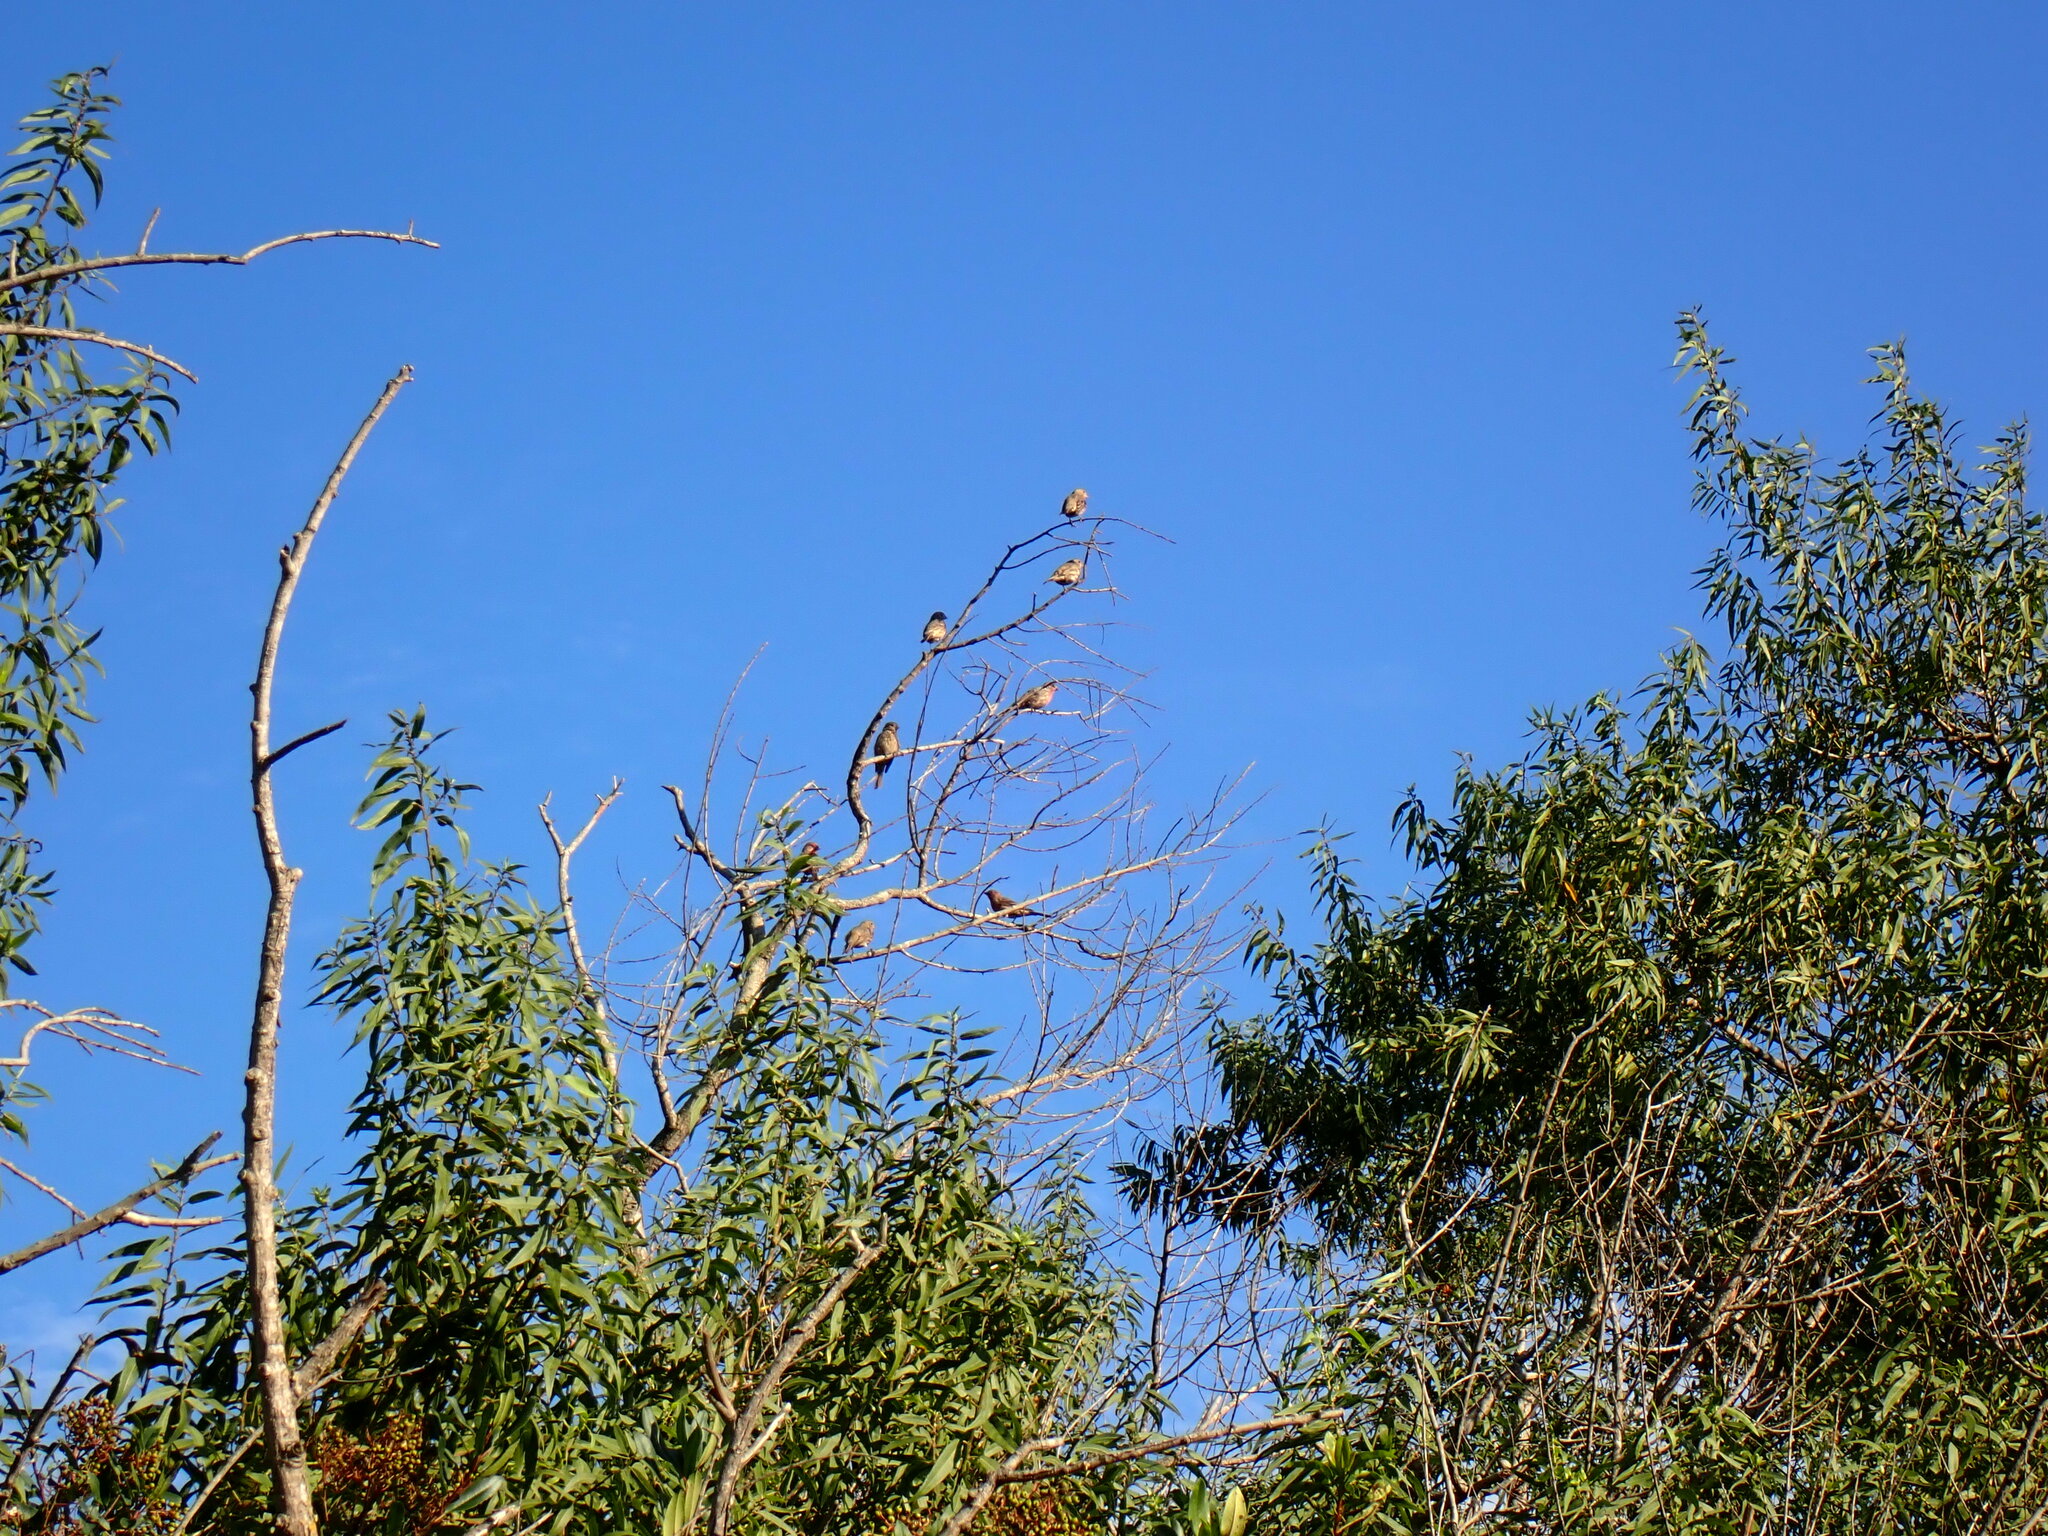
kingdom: Animalia
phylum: Chordata
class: Aves
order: Passeriformes
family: Fringillidae
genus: Haemorhous
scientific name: Haemorhous mexicanus
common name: House finch
